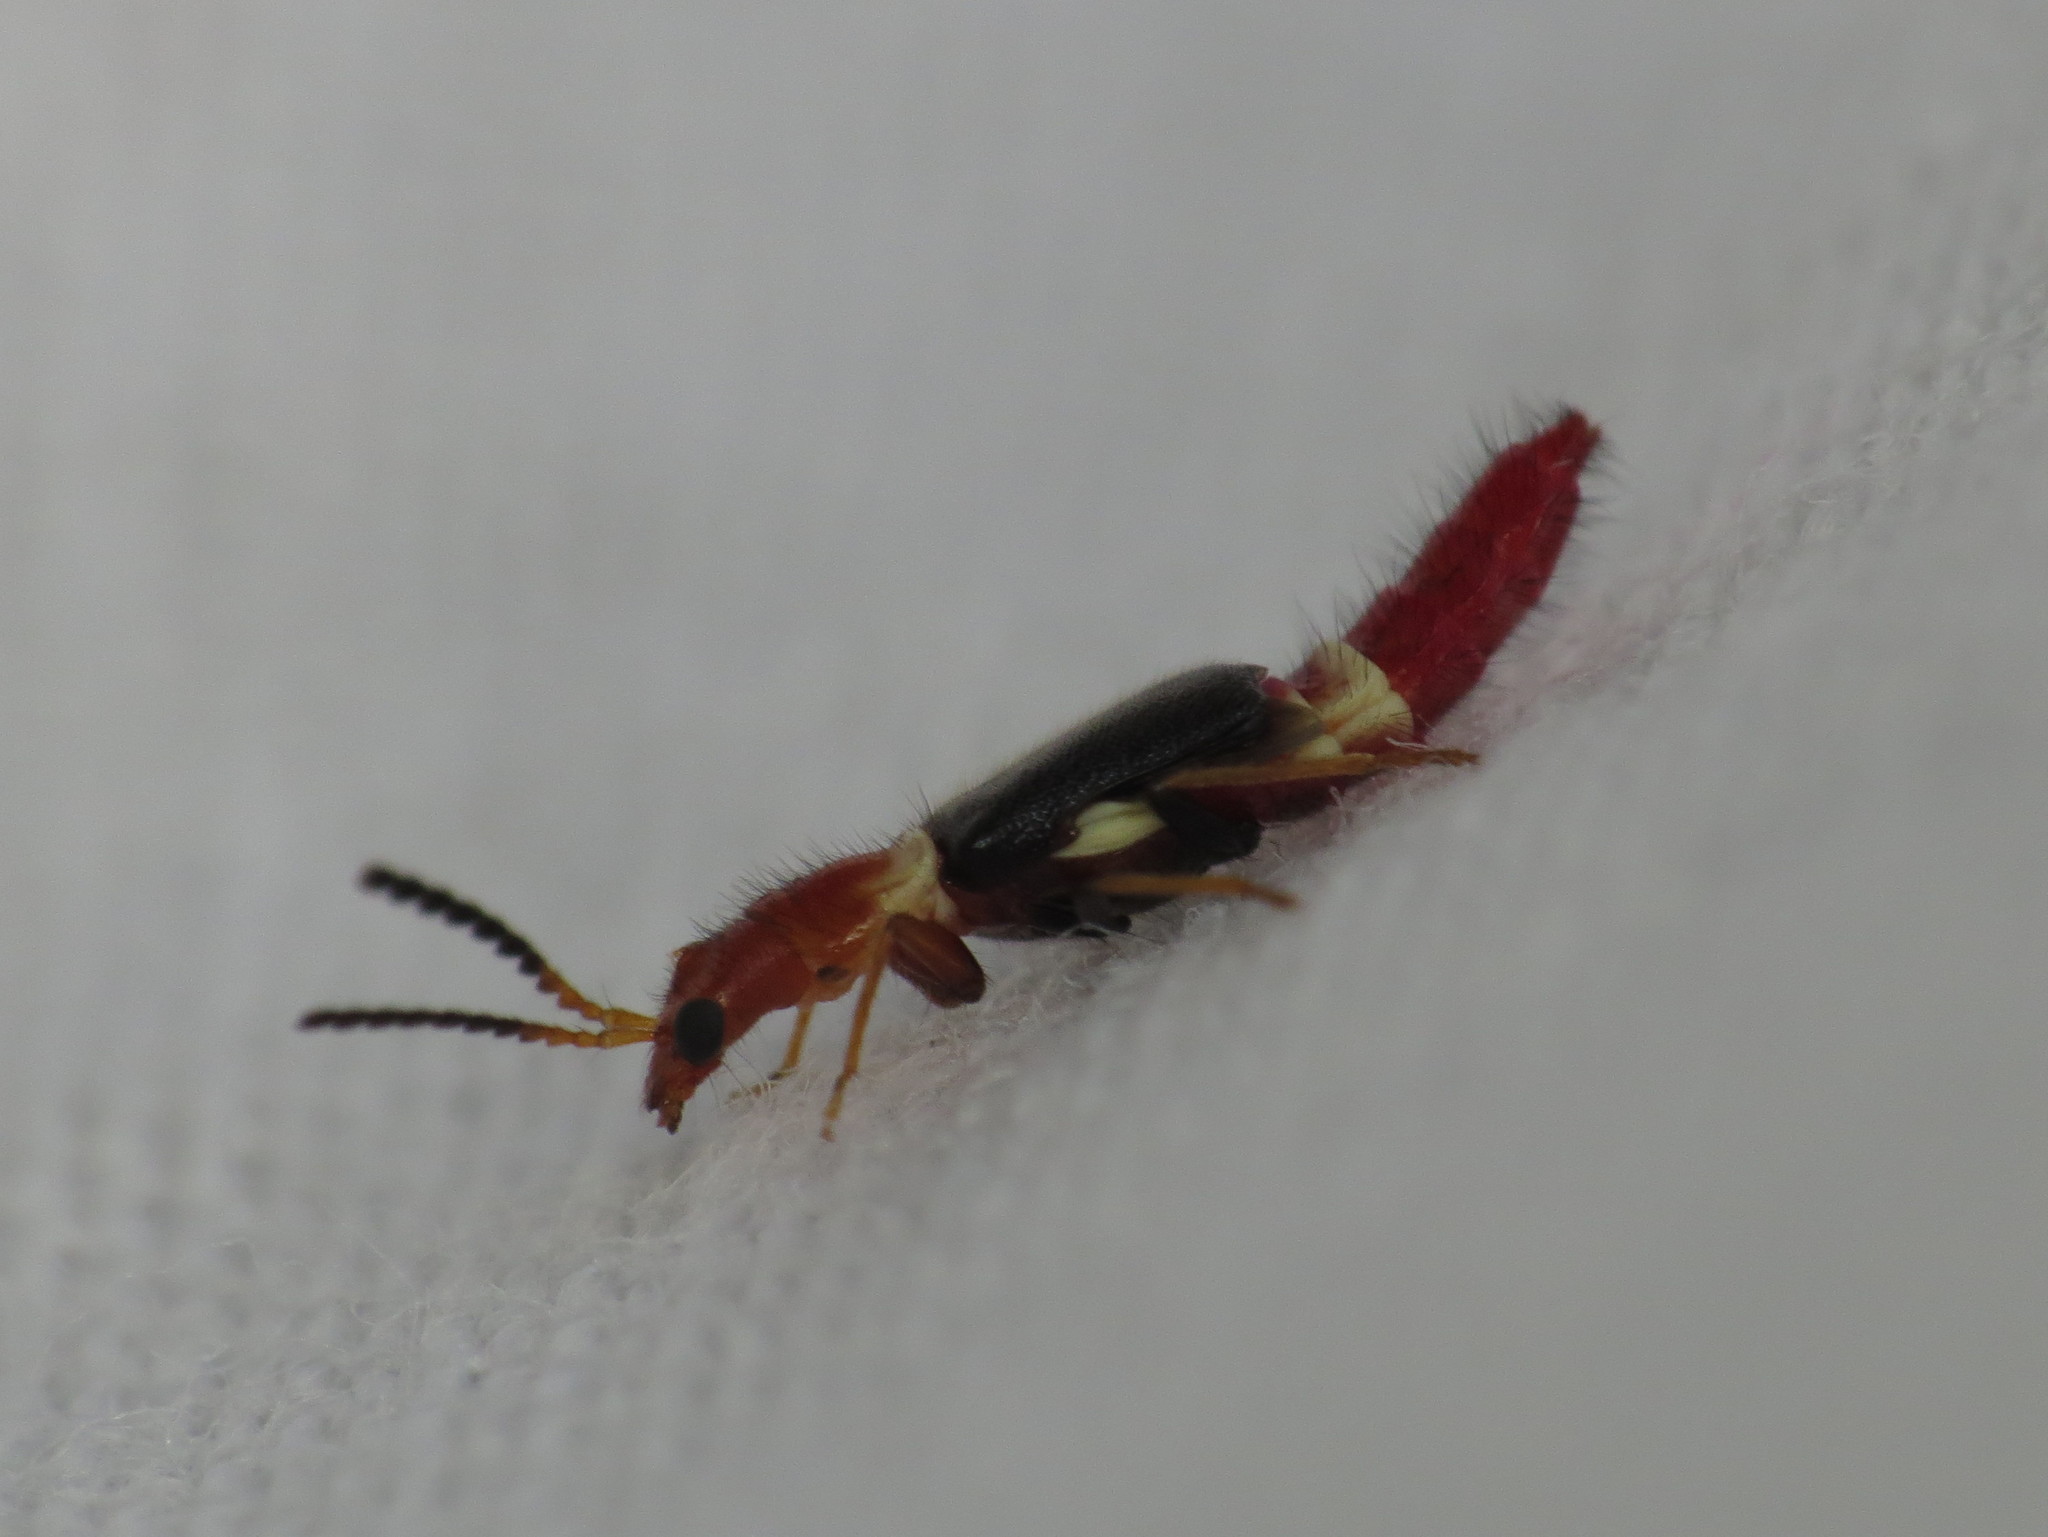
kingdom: Animalia
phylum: Arthropoda
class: Insecta
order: Coleoptera
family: Melyridae
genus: Carphurus
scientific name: Carphurus
